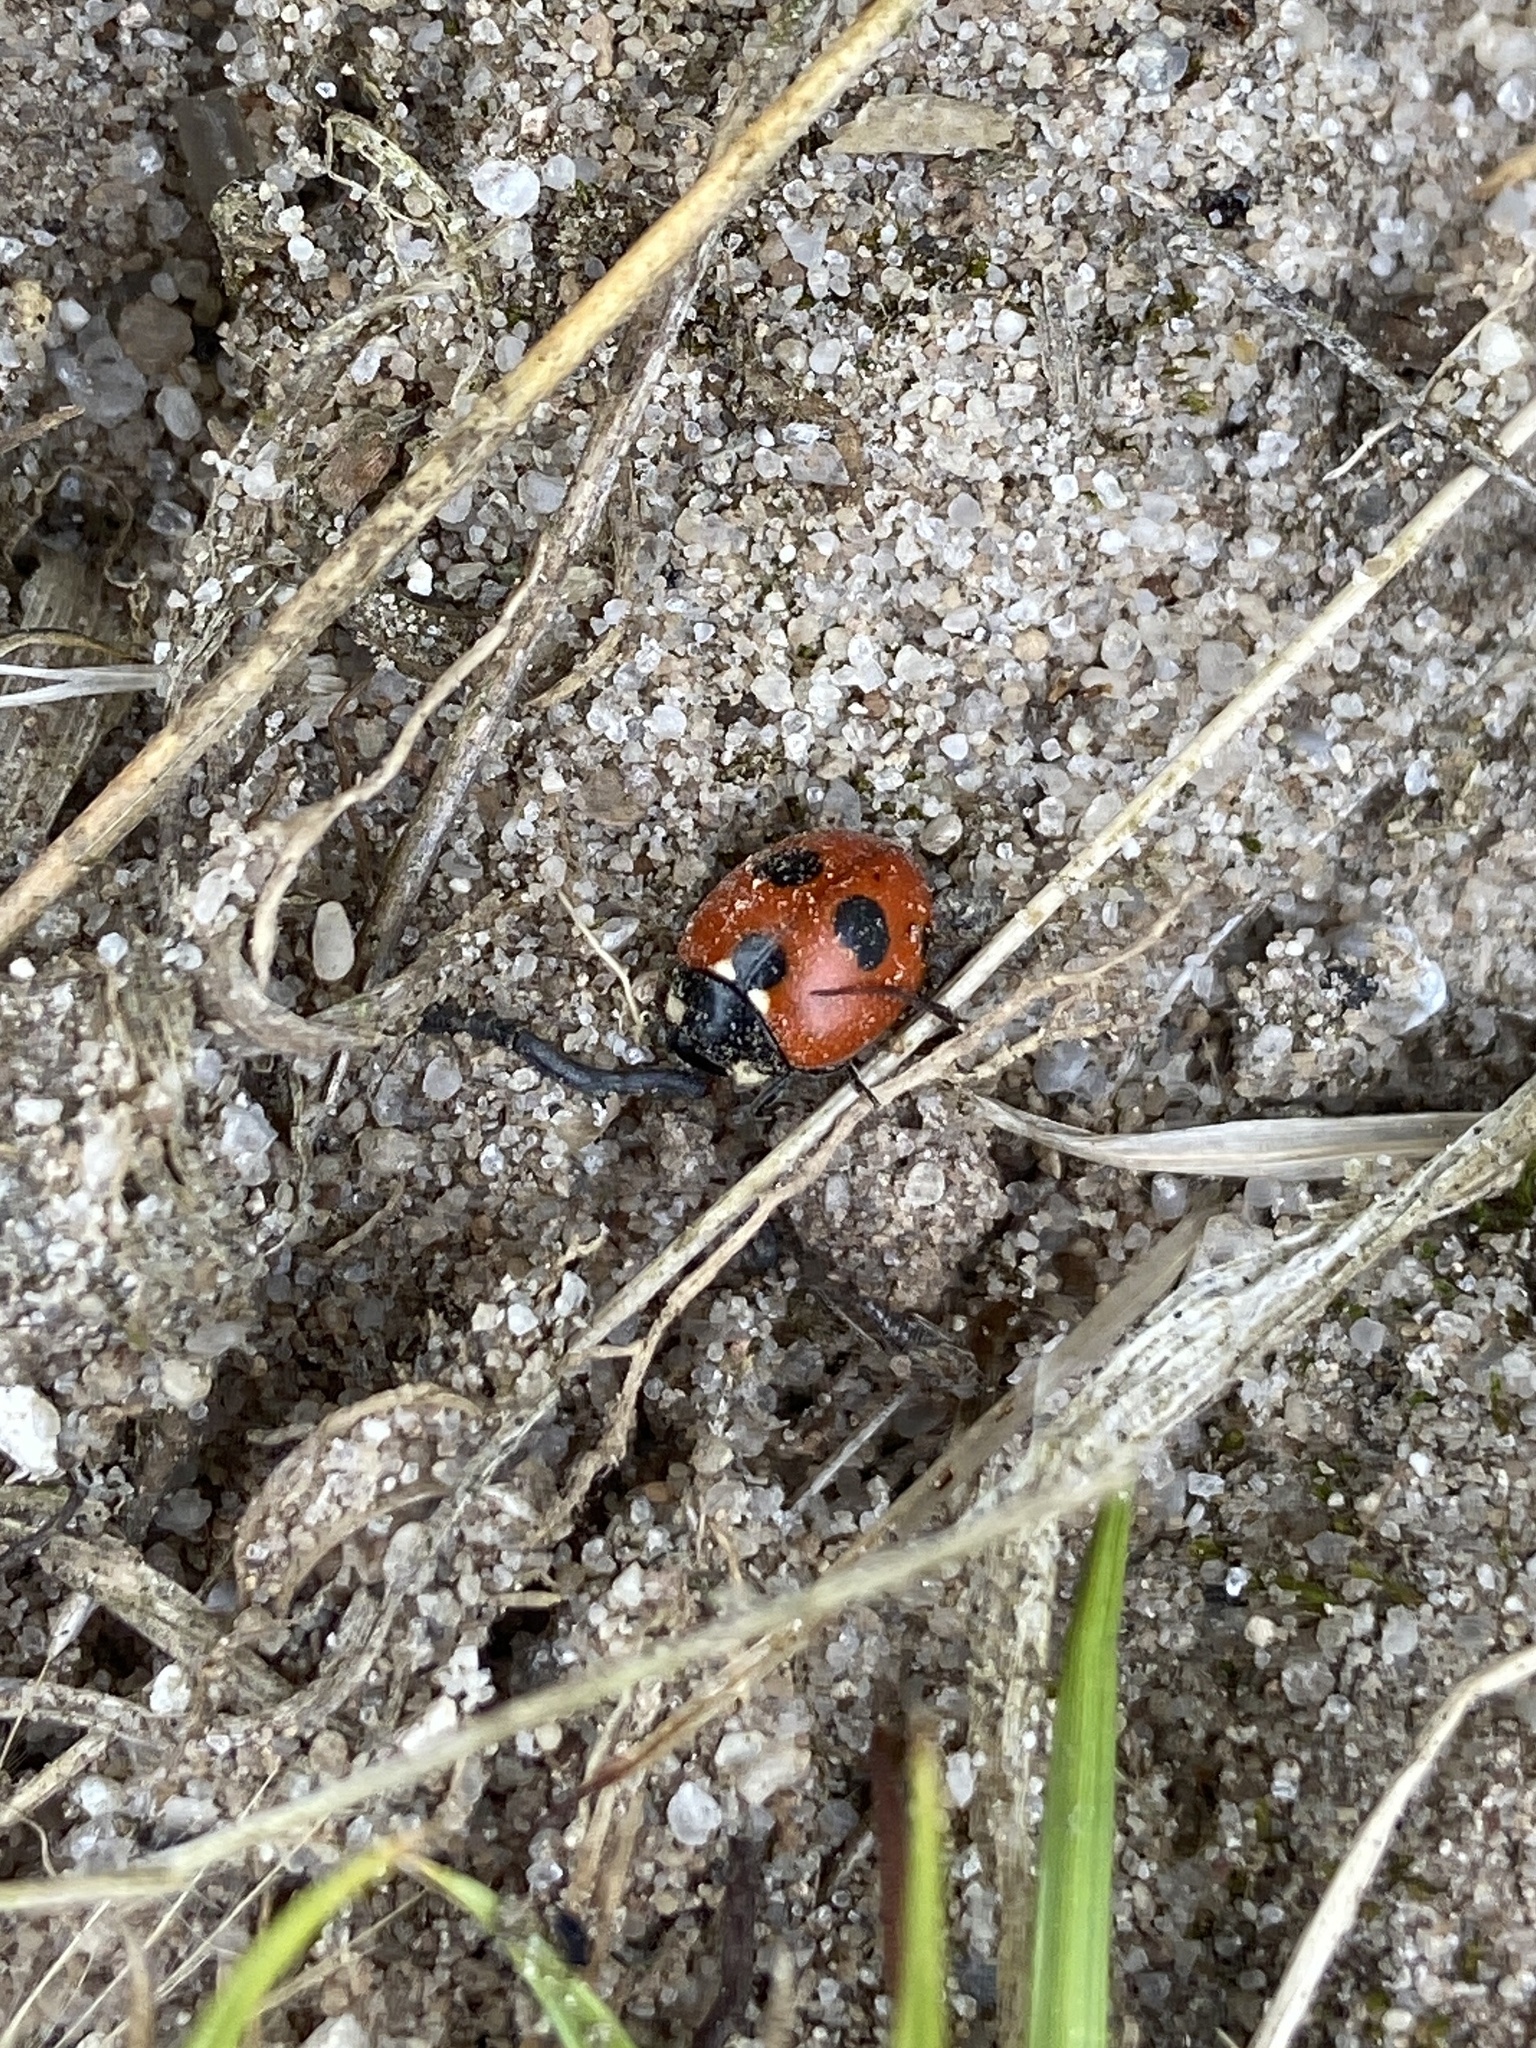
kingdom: Animalia
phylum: Arthropoda
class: Insecta
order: Coleoptera
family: Coccinellidae
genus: Coccinella
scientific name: Coccinella quinquepunctata
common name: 5-spot ladybird
